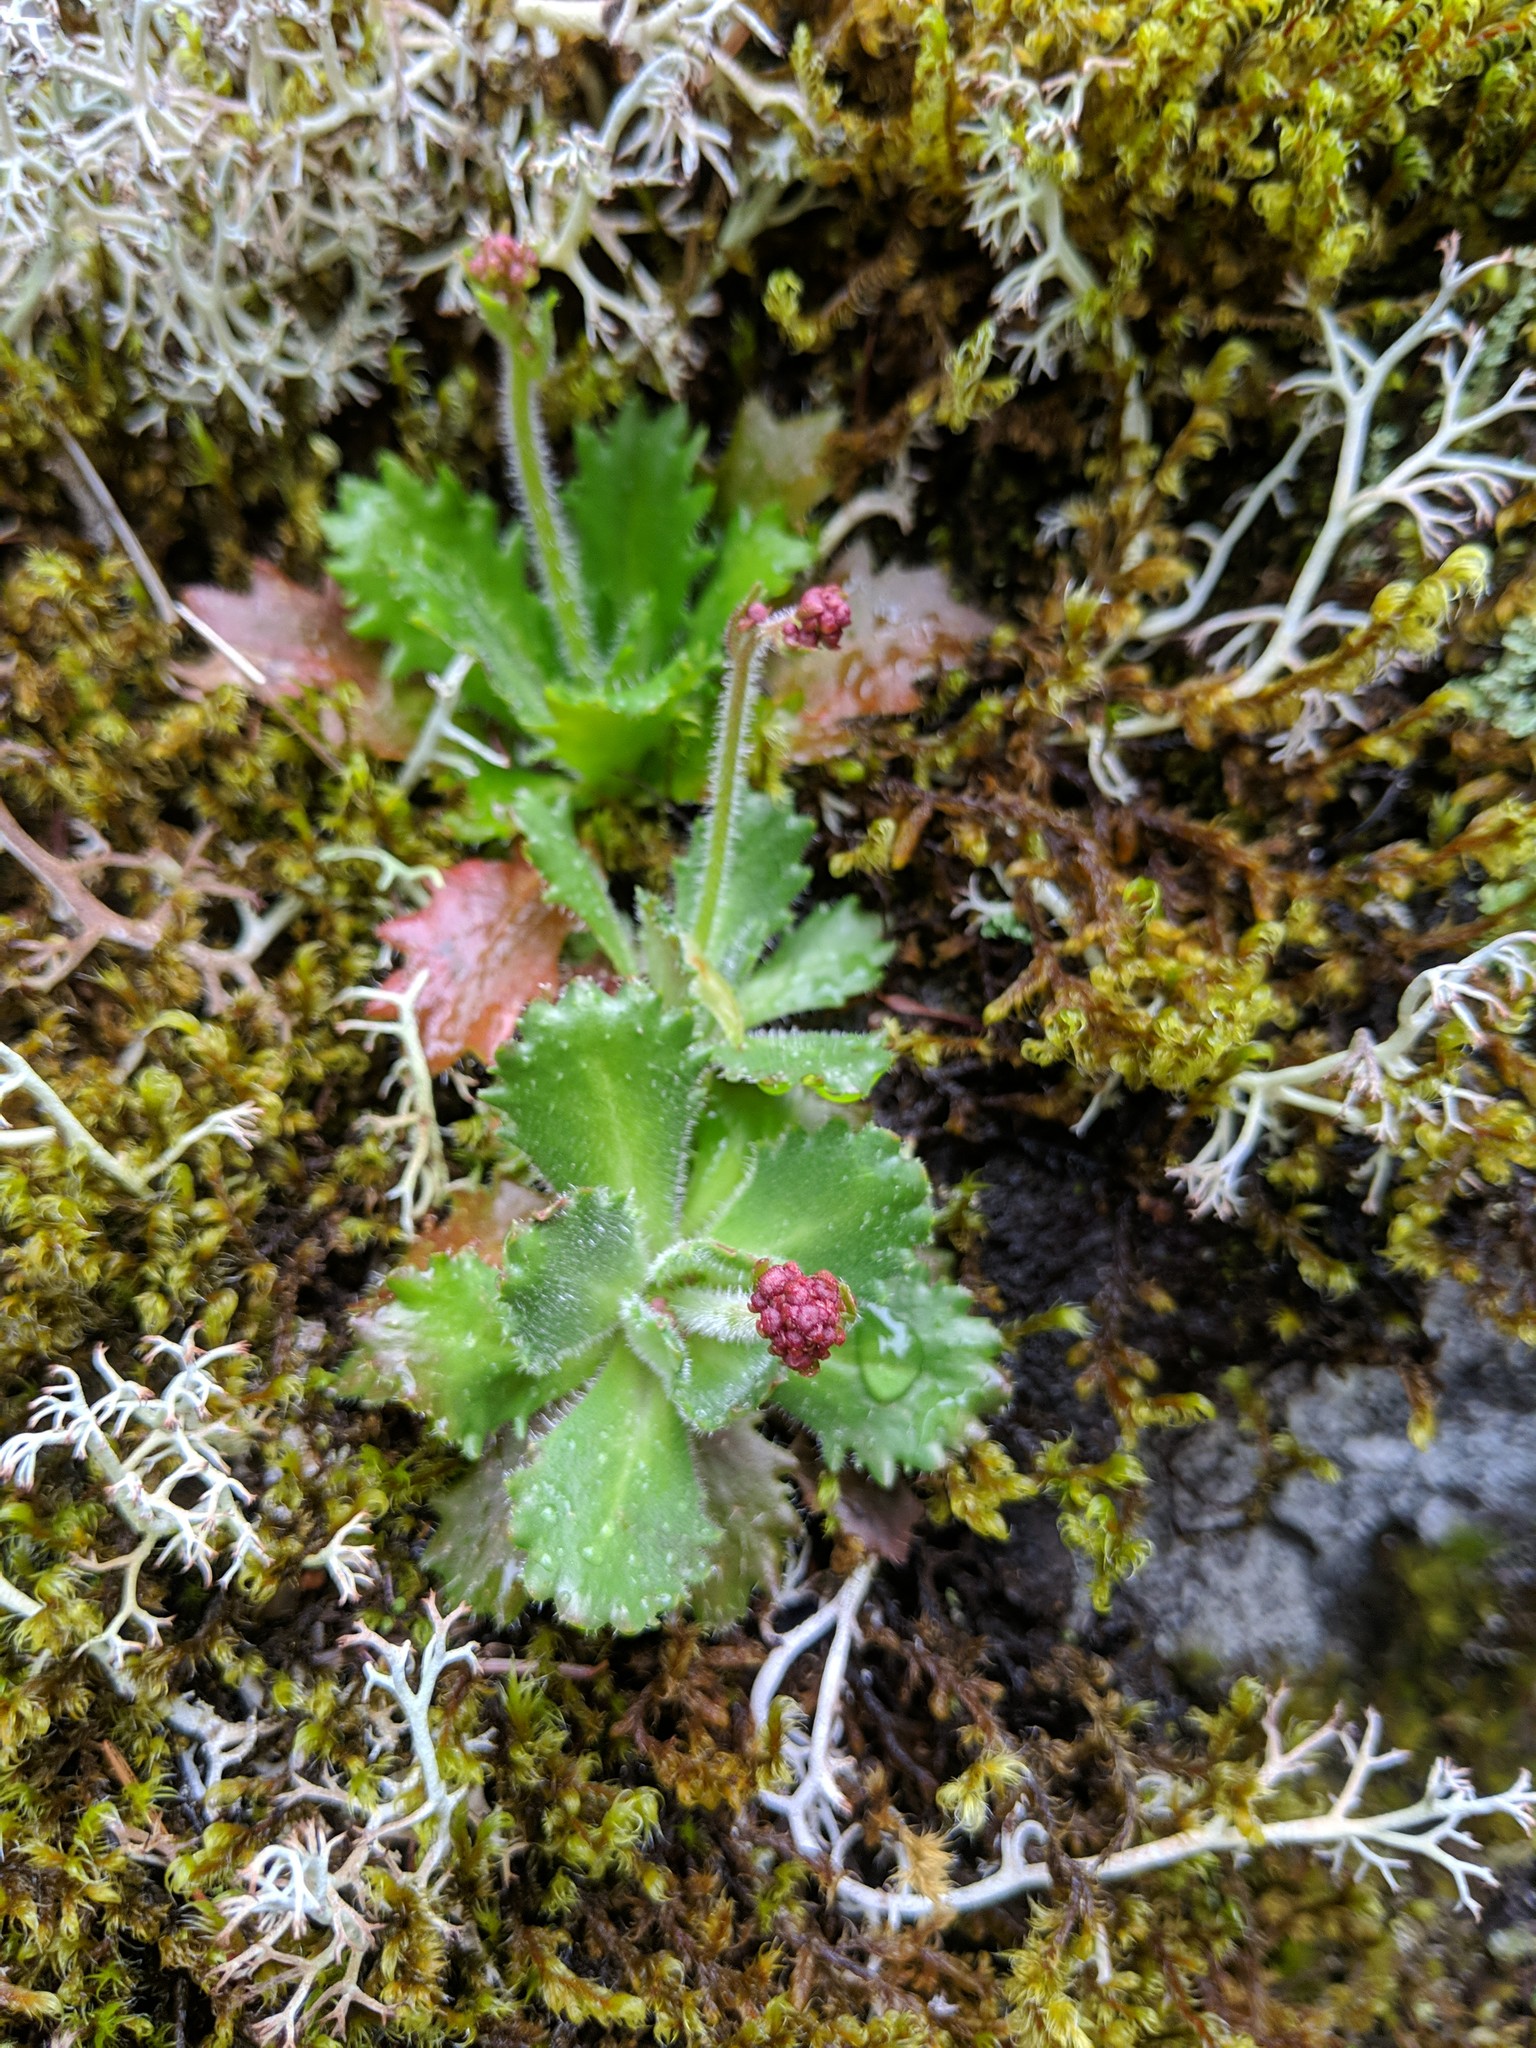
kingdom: Plantae
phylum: Tracheophyta
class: Magnoliopsida
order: Saxifragales
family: Saxifragaceae
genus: Micranthes
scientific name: Micranthes ferruginea
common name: Rusty saxifrage
